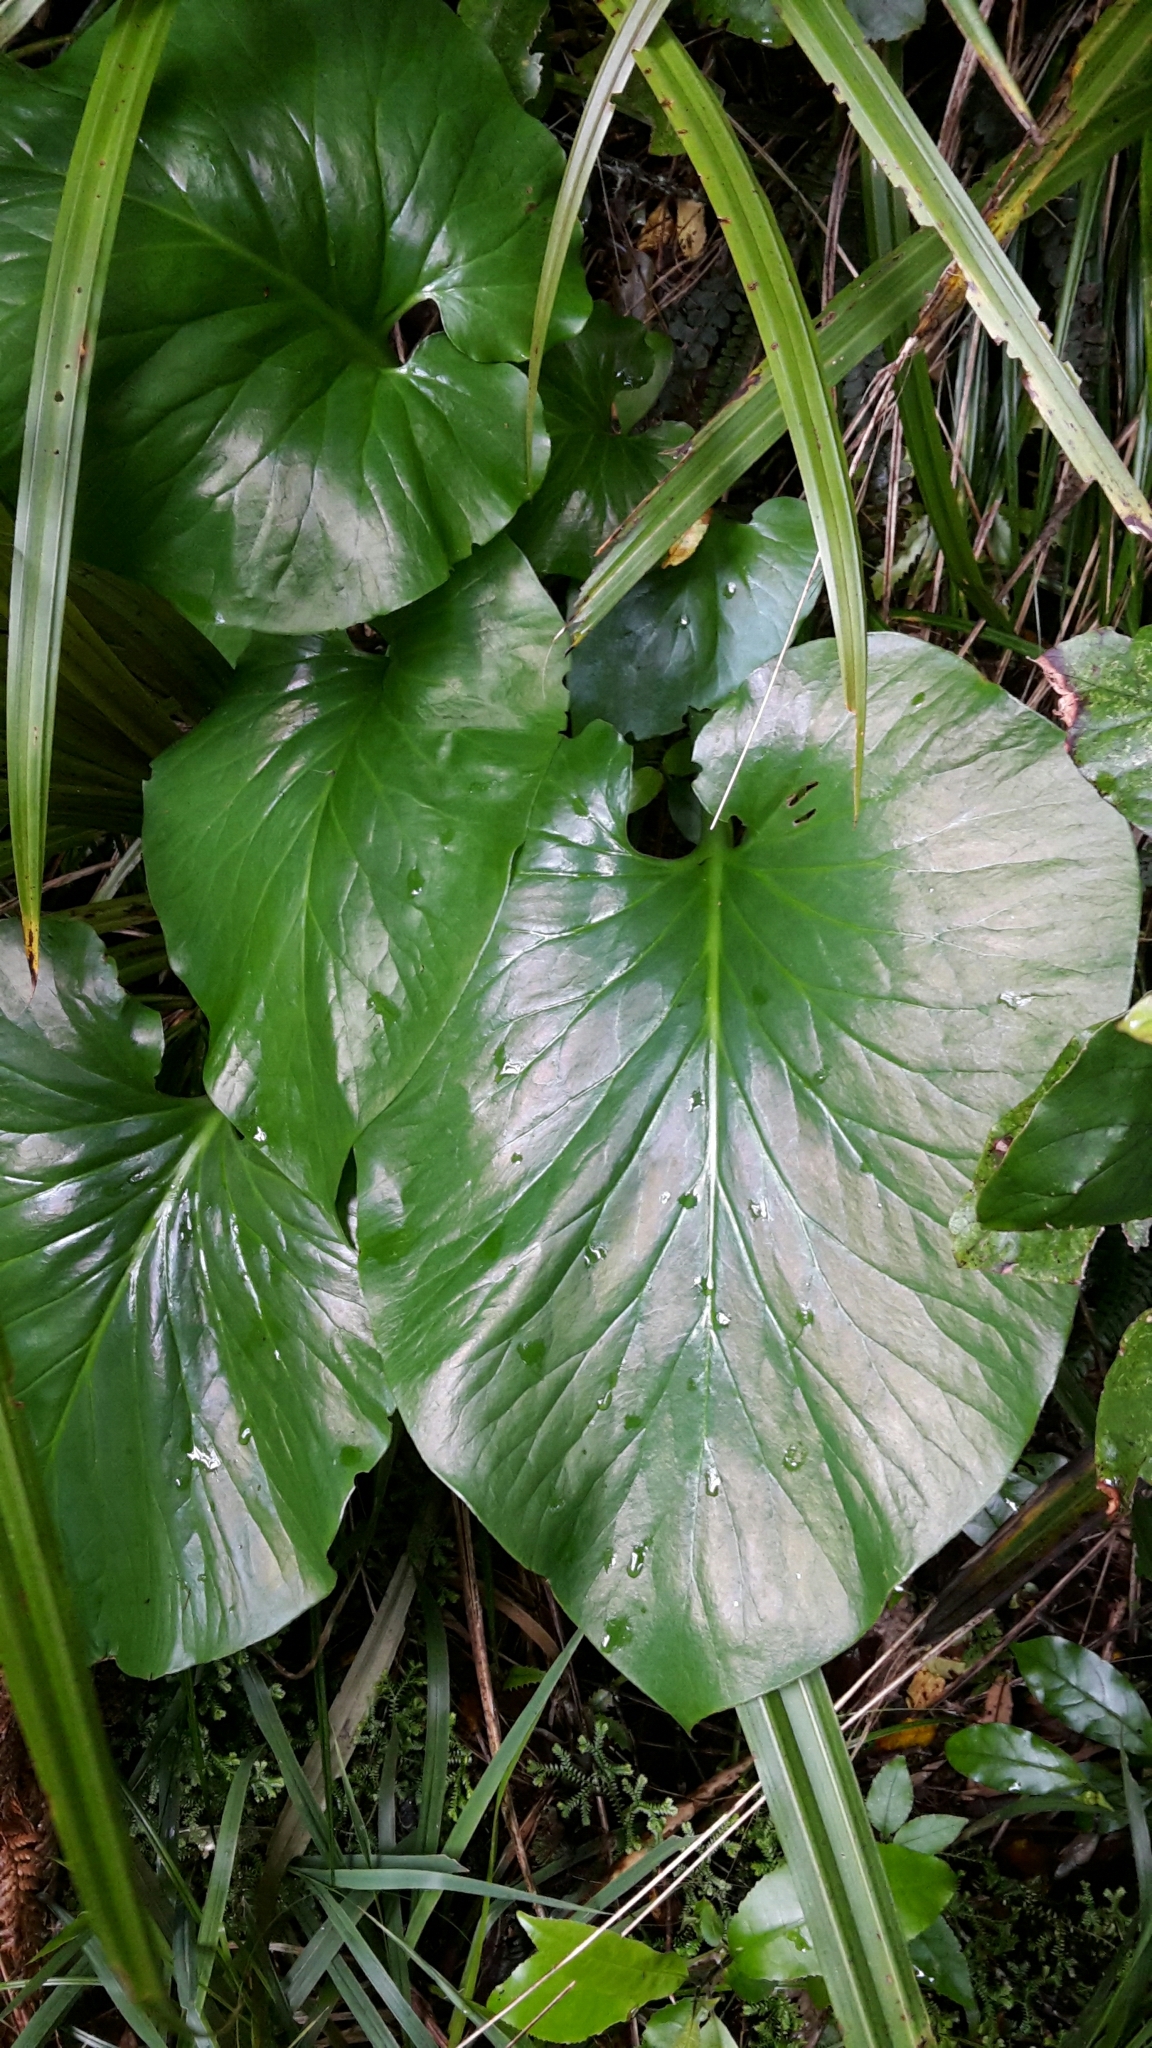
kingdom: Plantae
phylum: Tracheophyta
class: Liliopsida
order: Liliales
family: Liliaceae
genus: Cardiocrinum
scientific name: Cardiocrinum giganteum
